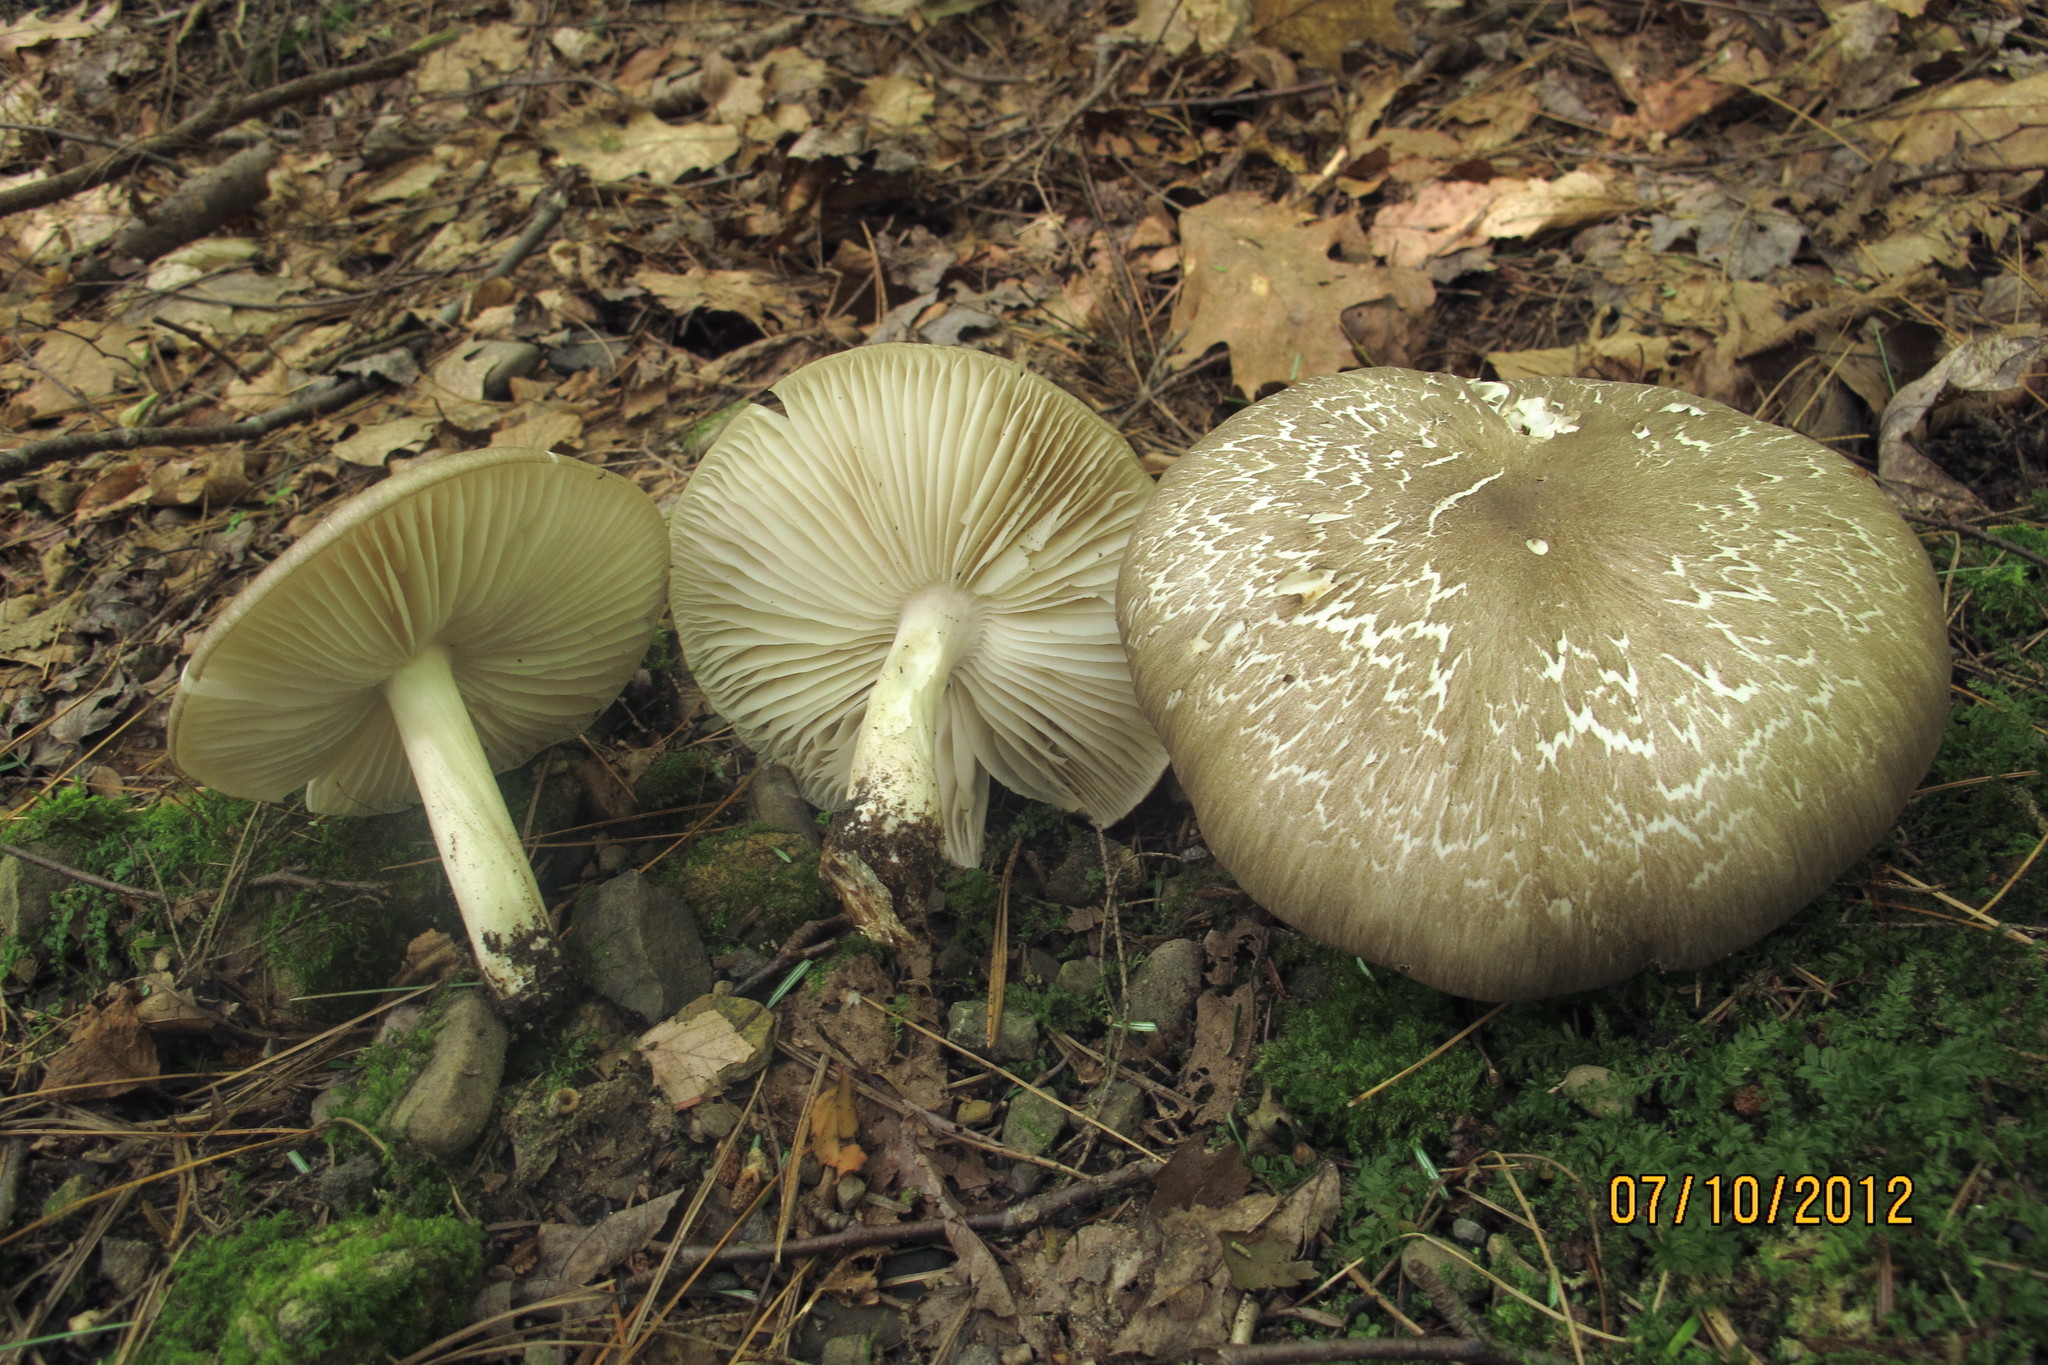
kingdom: Fungi
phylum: Basidiomycota
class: Agaricomycetes
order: Agaricales
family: Tricholomataceae
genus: Megacollybia
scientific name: Megacollybia rodmanii
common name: Eastern american platterful mushroom
